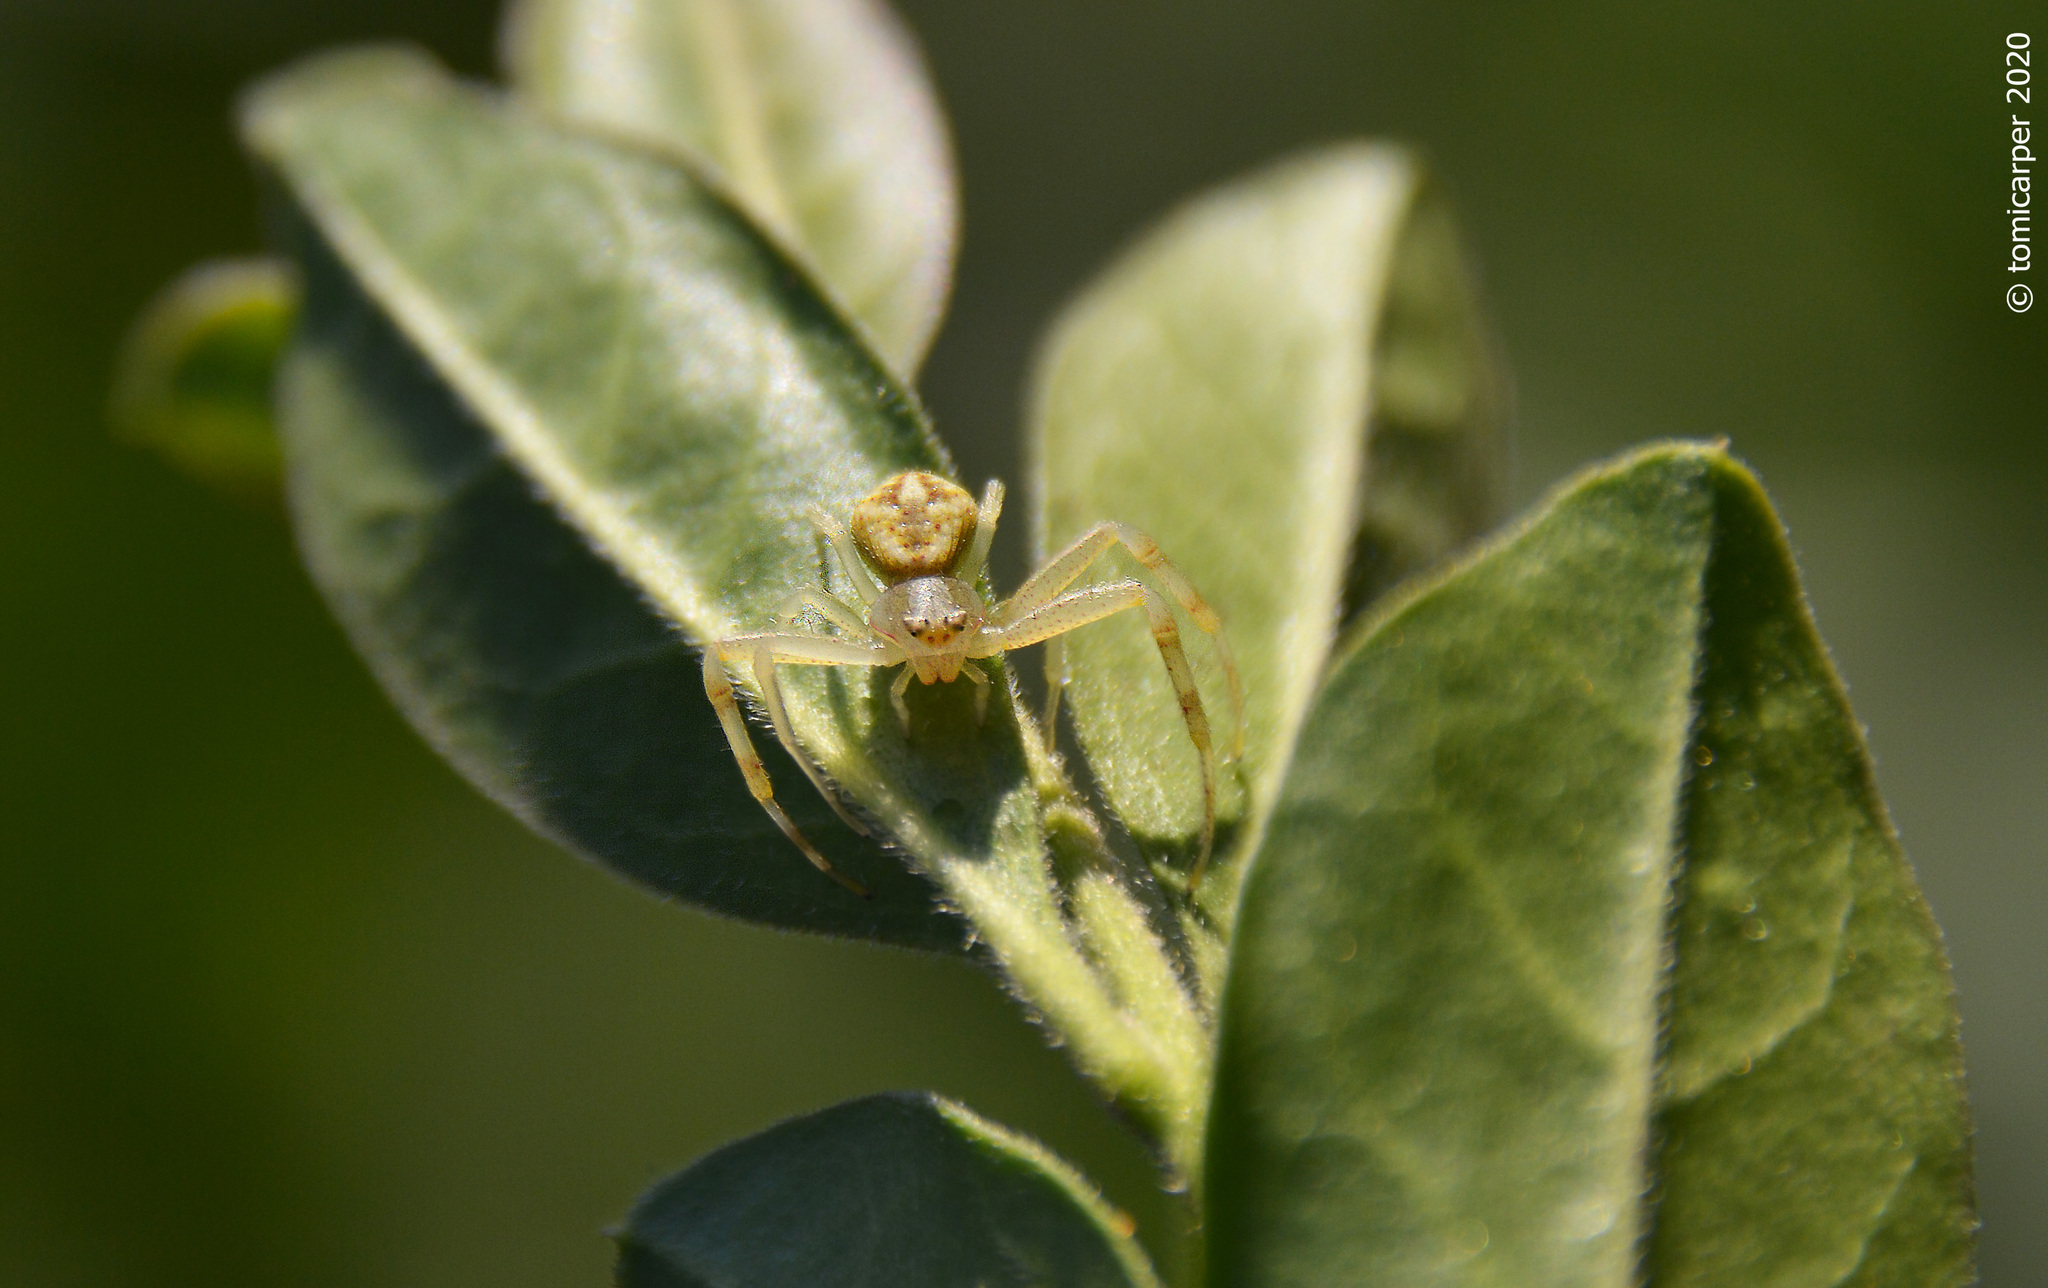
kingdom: Animalia
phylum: Arthropoda
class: Arachnida
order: Araneae
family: Thomisidae
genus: Misumenops
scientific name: Misumenops
